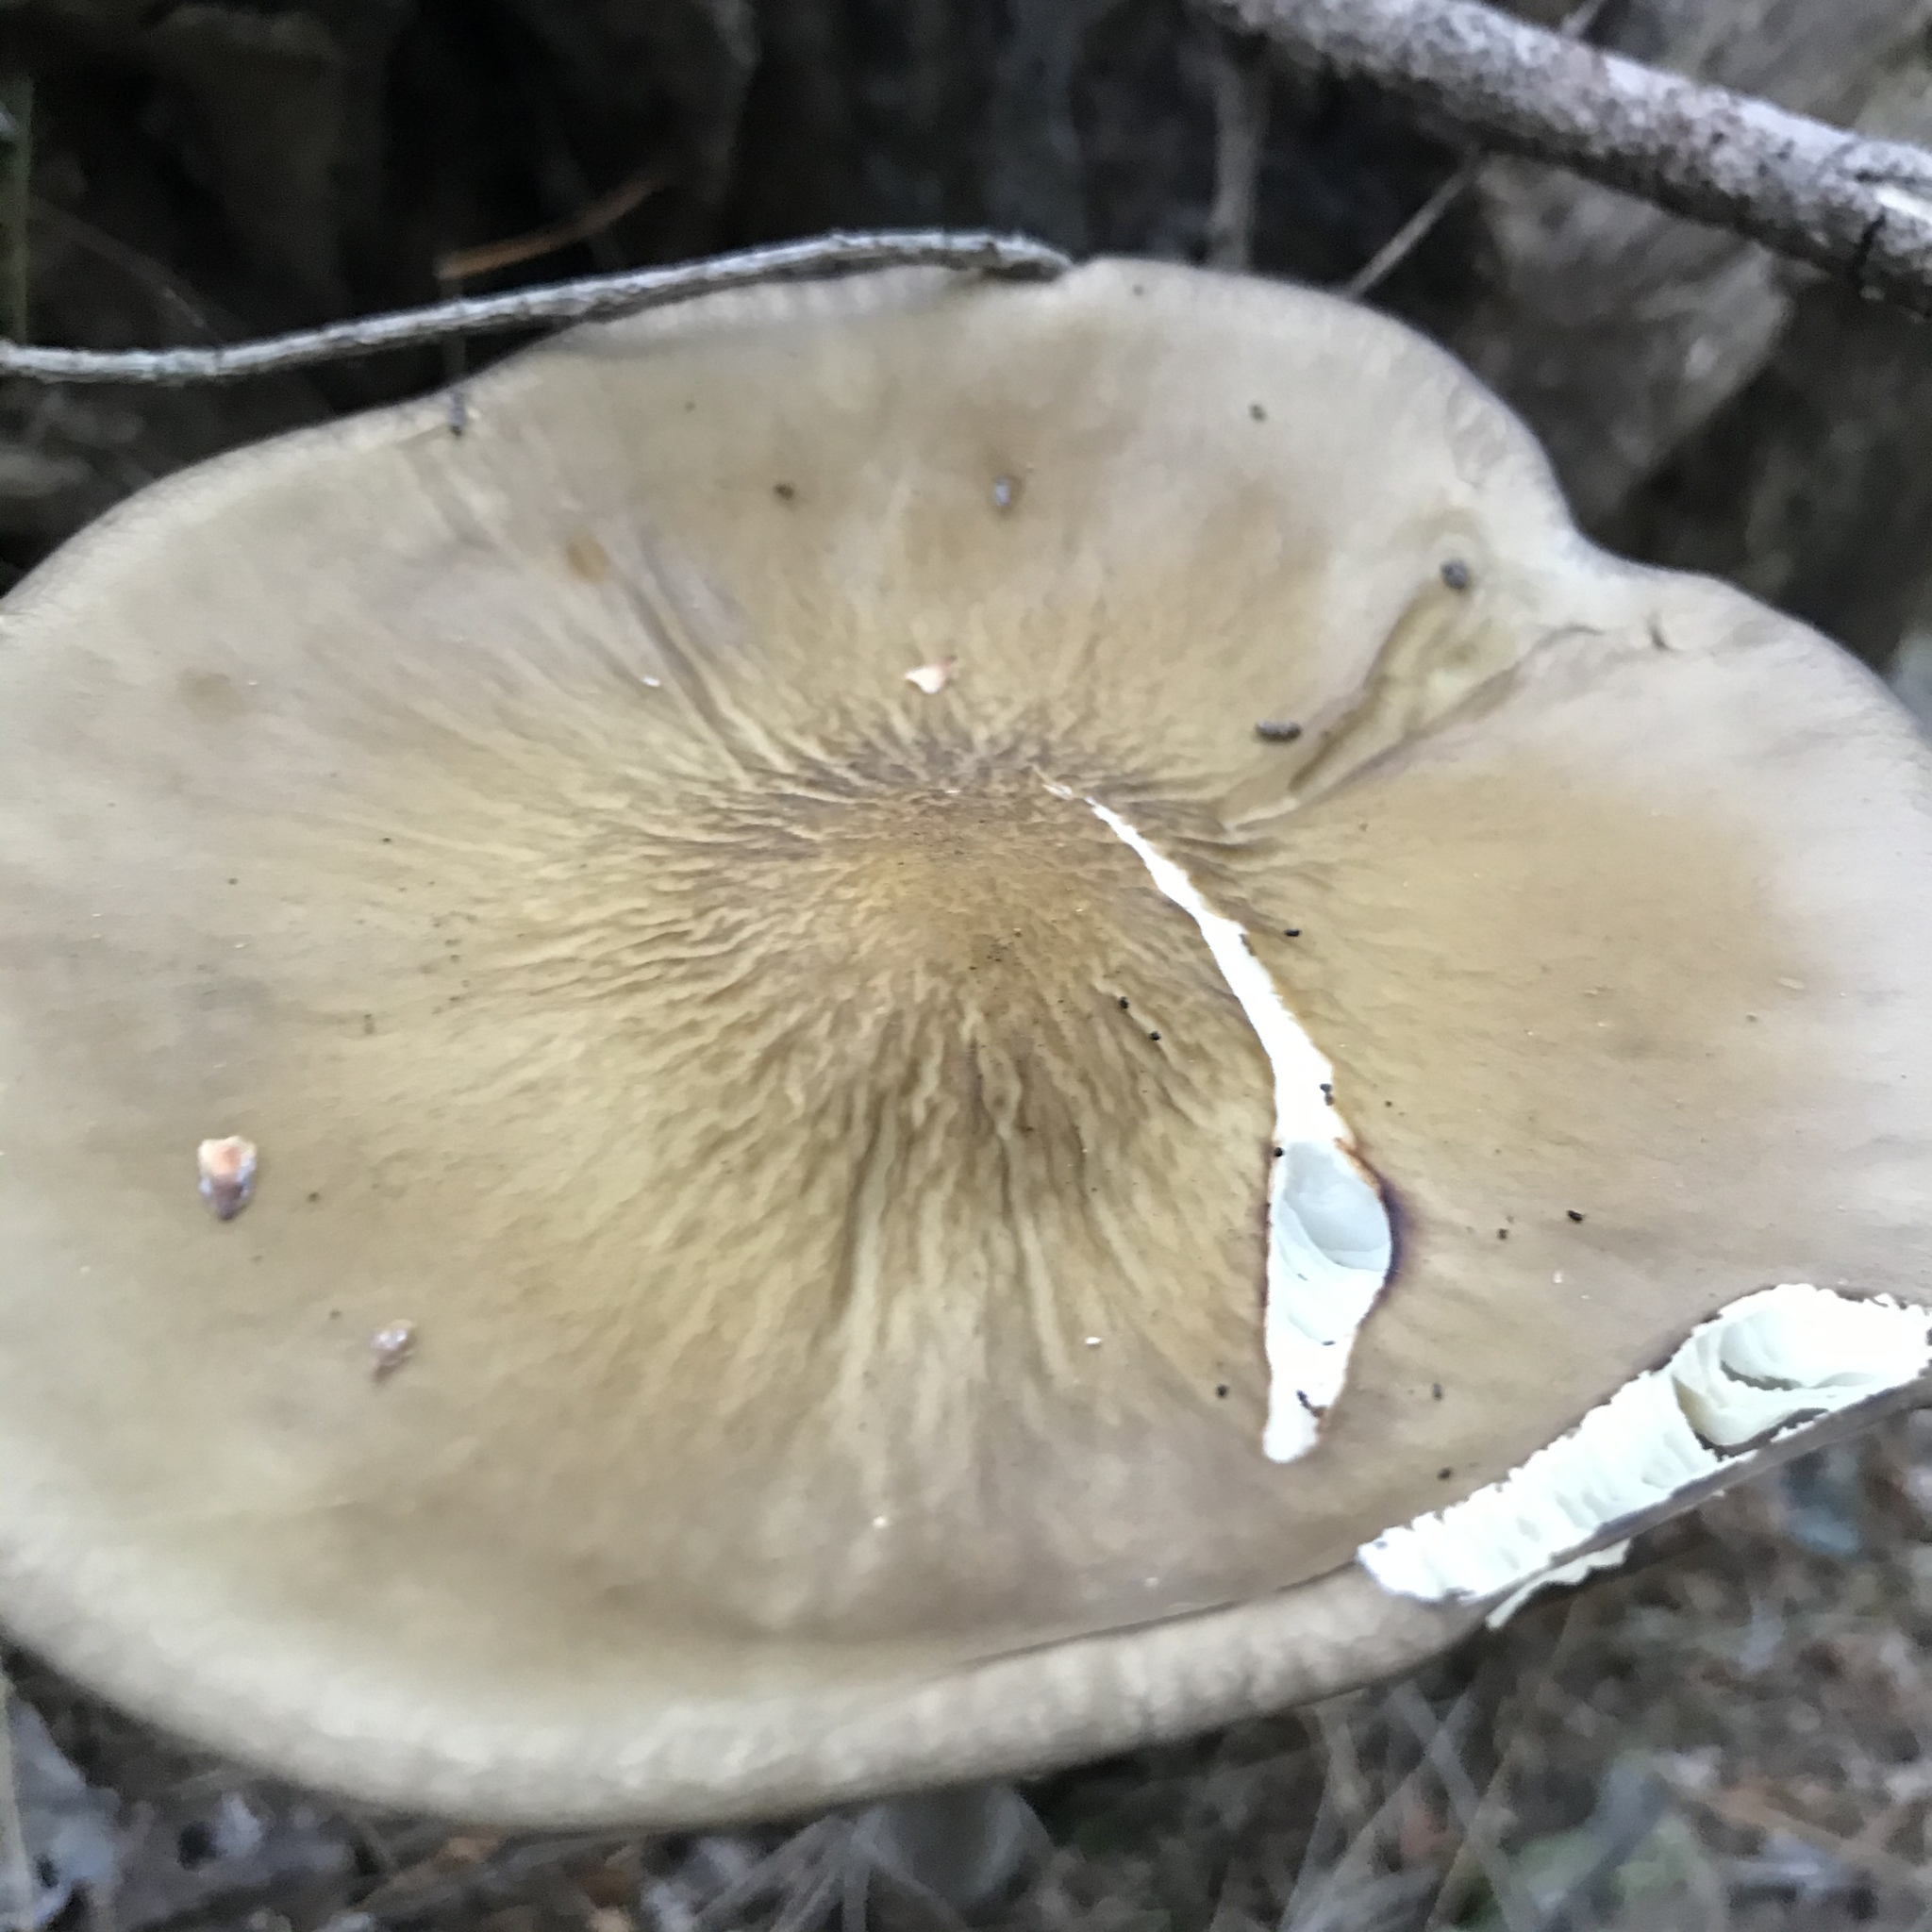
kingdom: Fungi
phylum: Basidiomycota
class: Agaricomycetes
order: Agaricales
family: Physalacriaceae
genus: Hymenopellis
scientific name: Hymenopellis radicata
